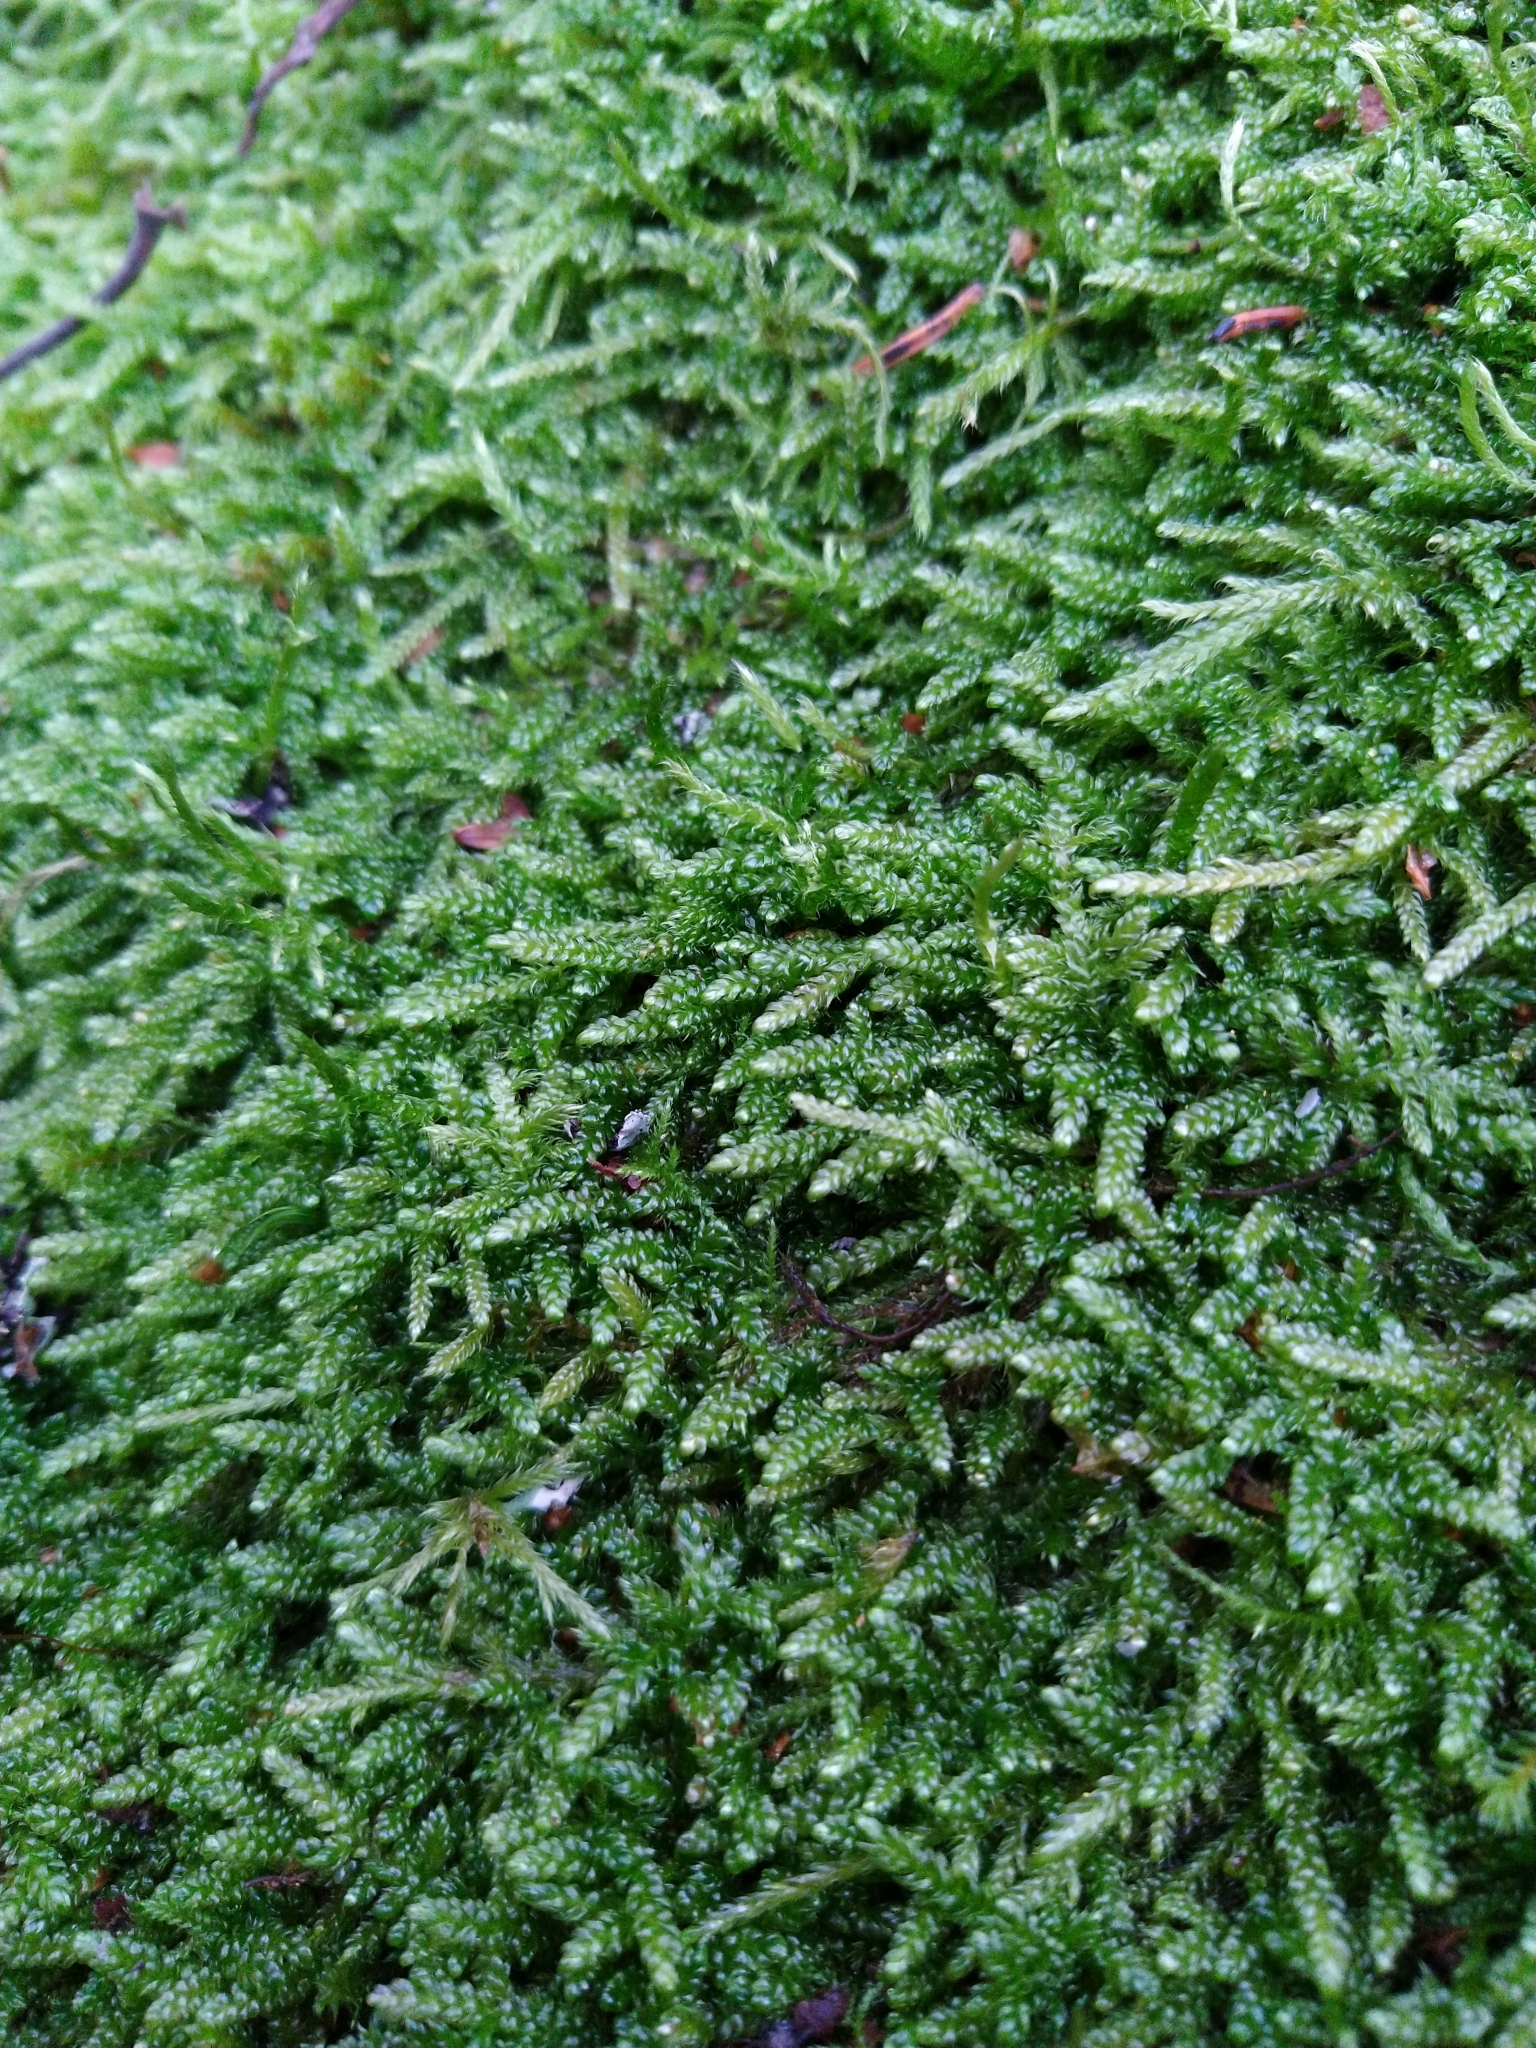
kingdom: Plantae
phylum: Bryophyta
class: Bryopsida
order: Hypnales
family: Hypnaceae
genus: Hypnum
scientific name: Hypnum cupressiforme
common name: Cypress-leaved plait-moss
